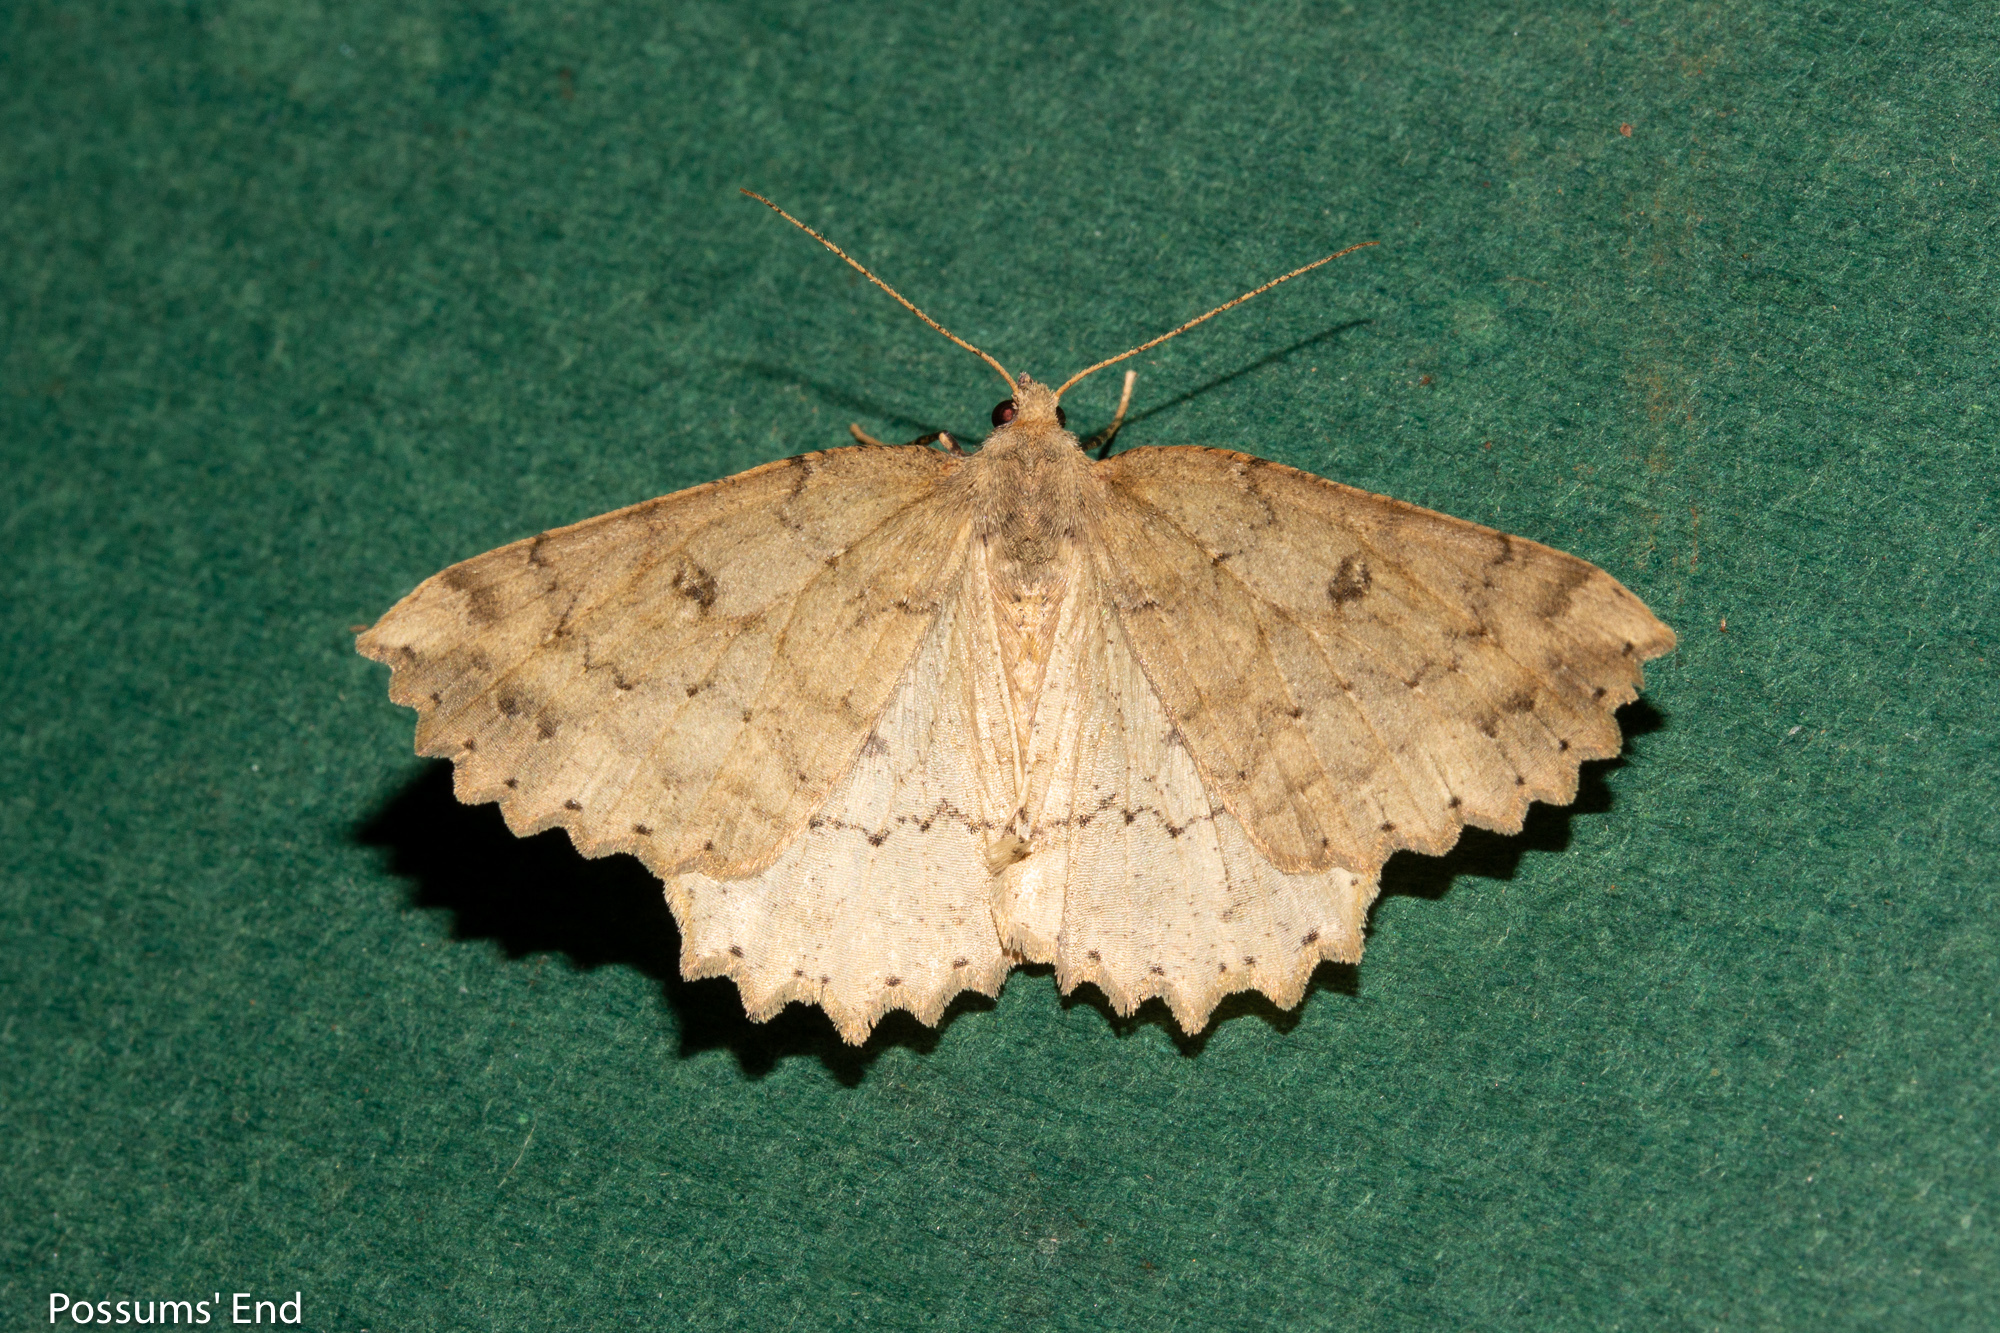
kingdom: Animalia
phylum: Arthropoda
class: Insecta
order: Lepidoptera
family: Geometridae
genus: Cleora
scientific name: Cleora scriptaria
